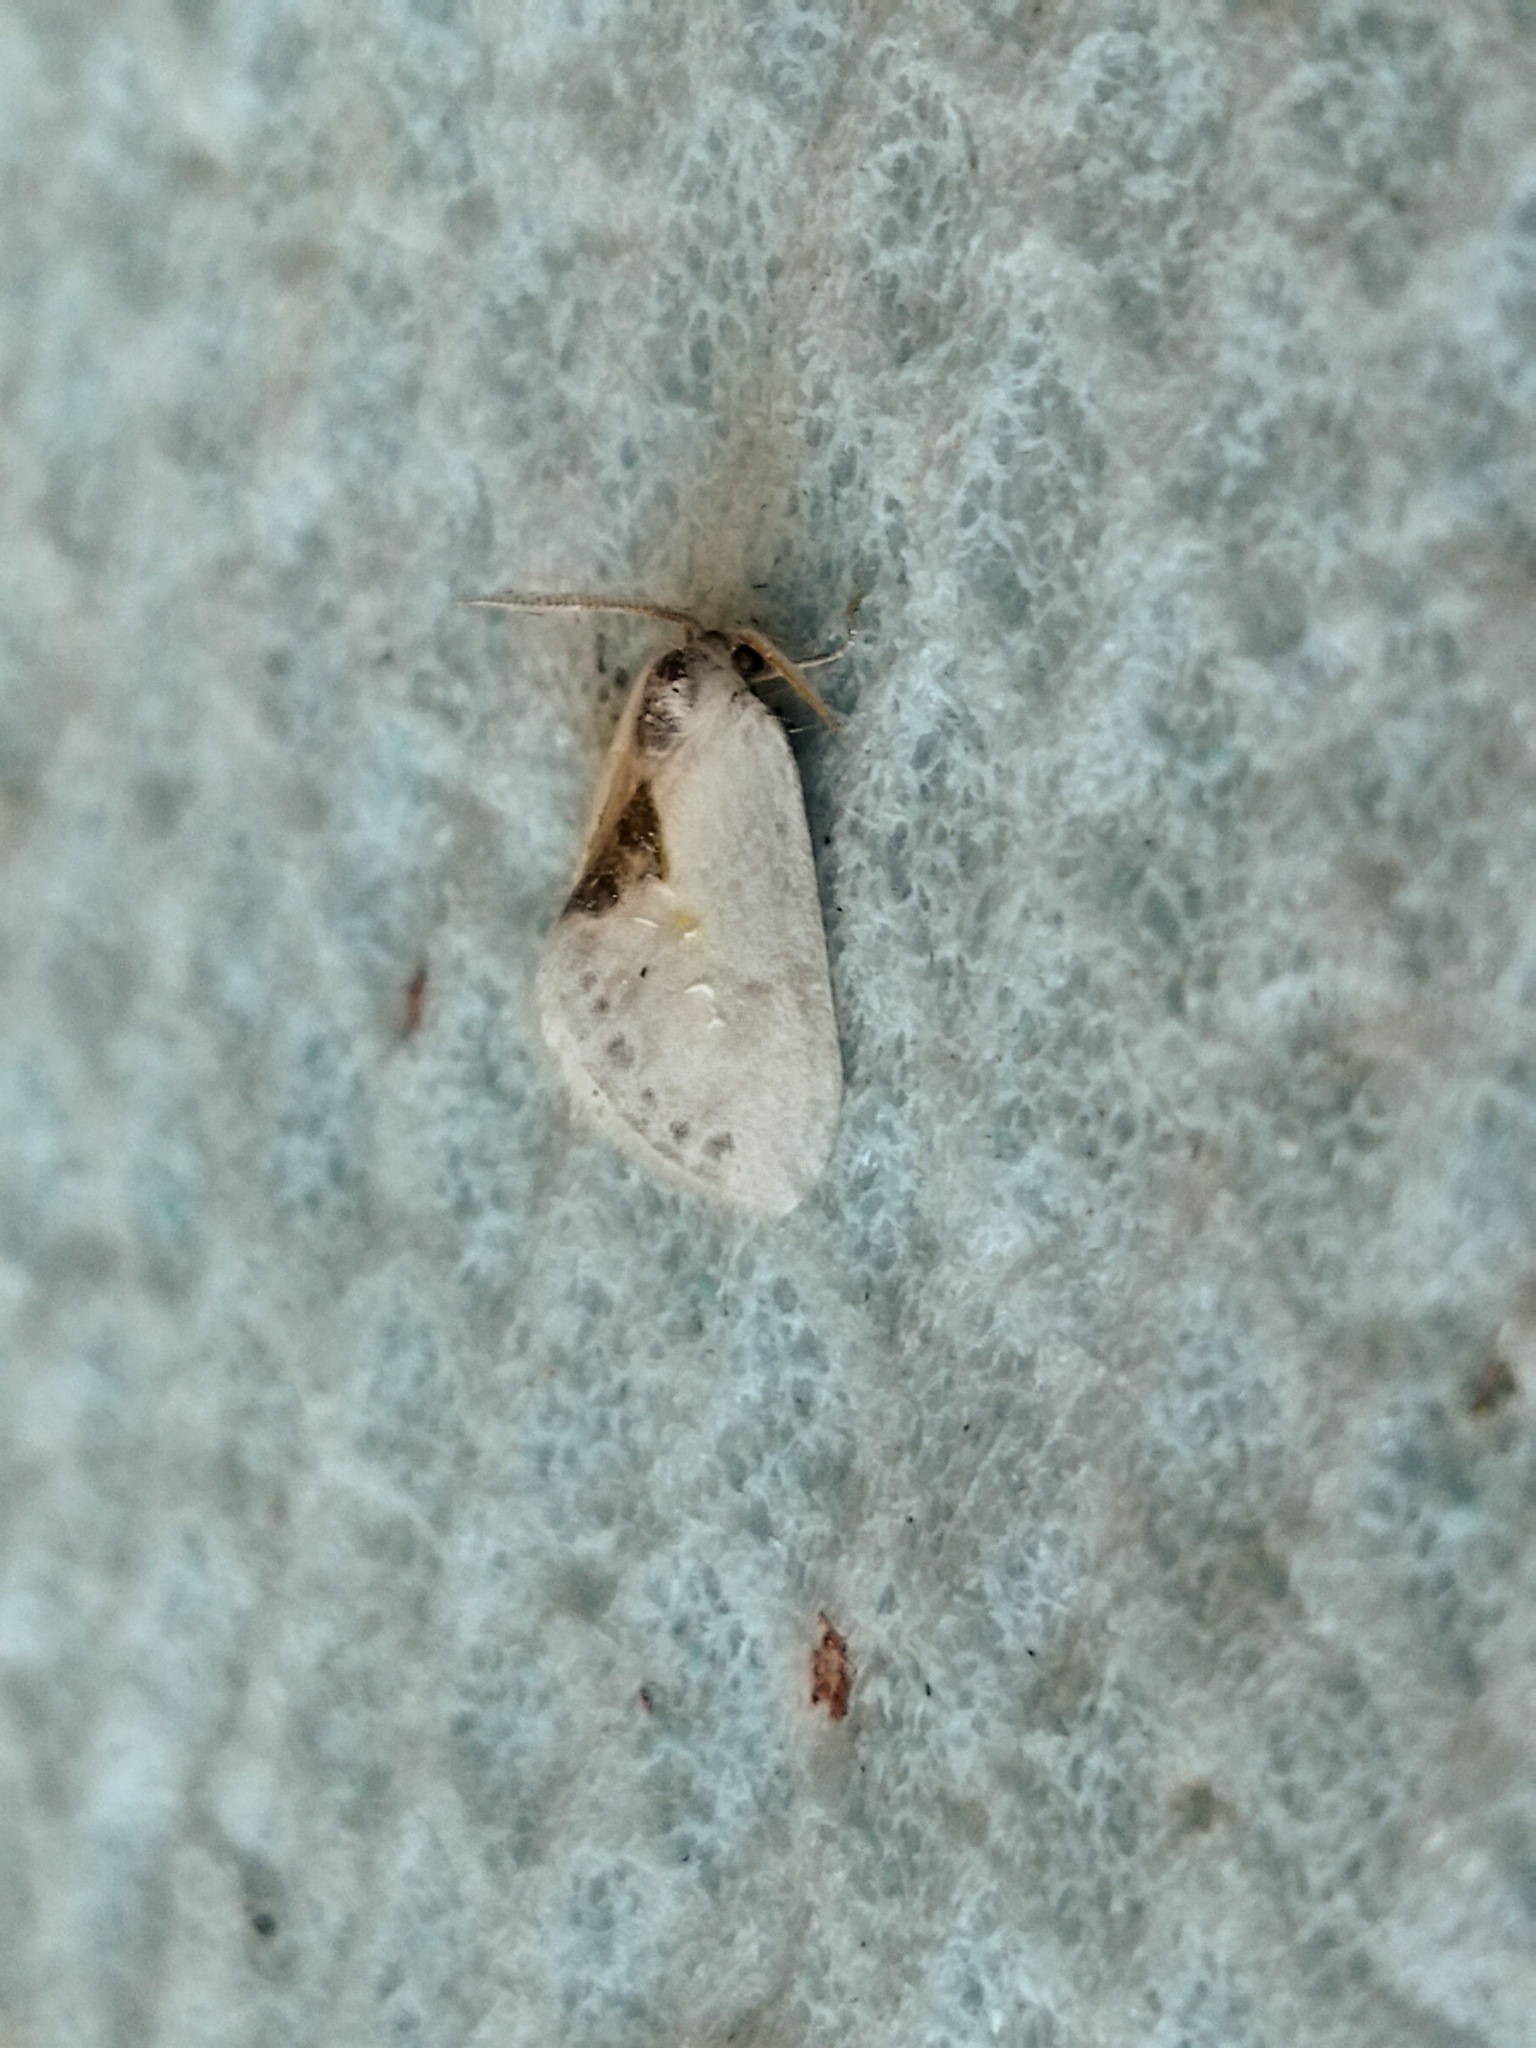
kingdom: Animalia
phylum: Arthropoda
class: Insecta
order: Lepidoptera
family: Drepanidae
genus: Cilix
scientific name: Cilix asiatica
